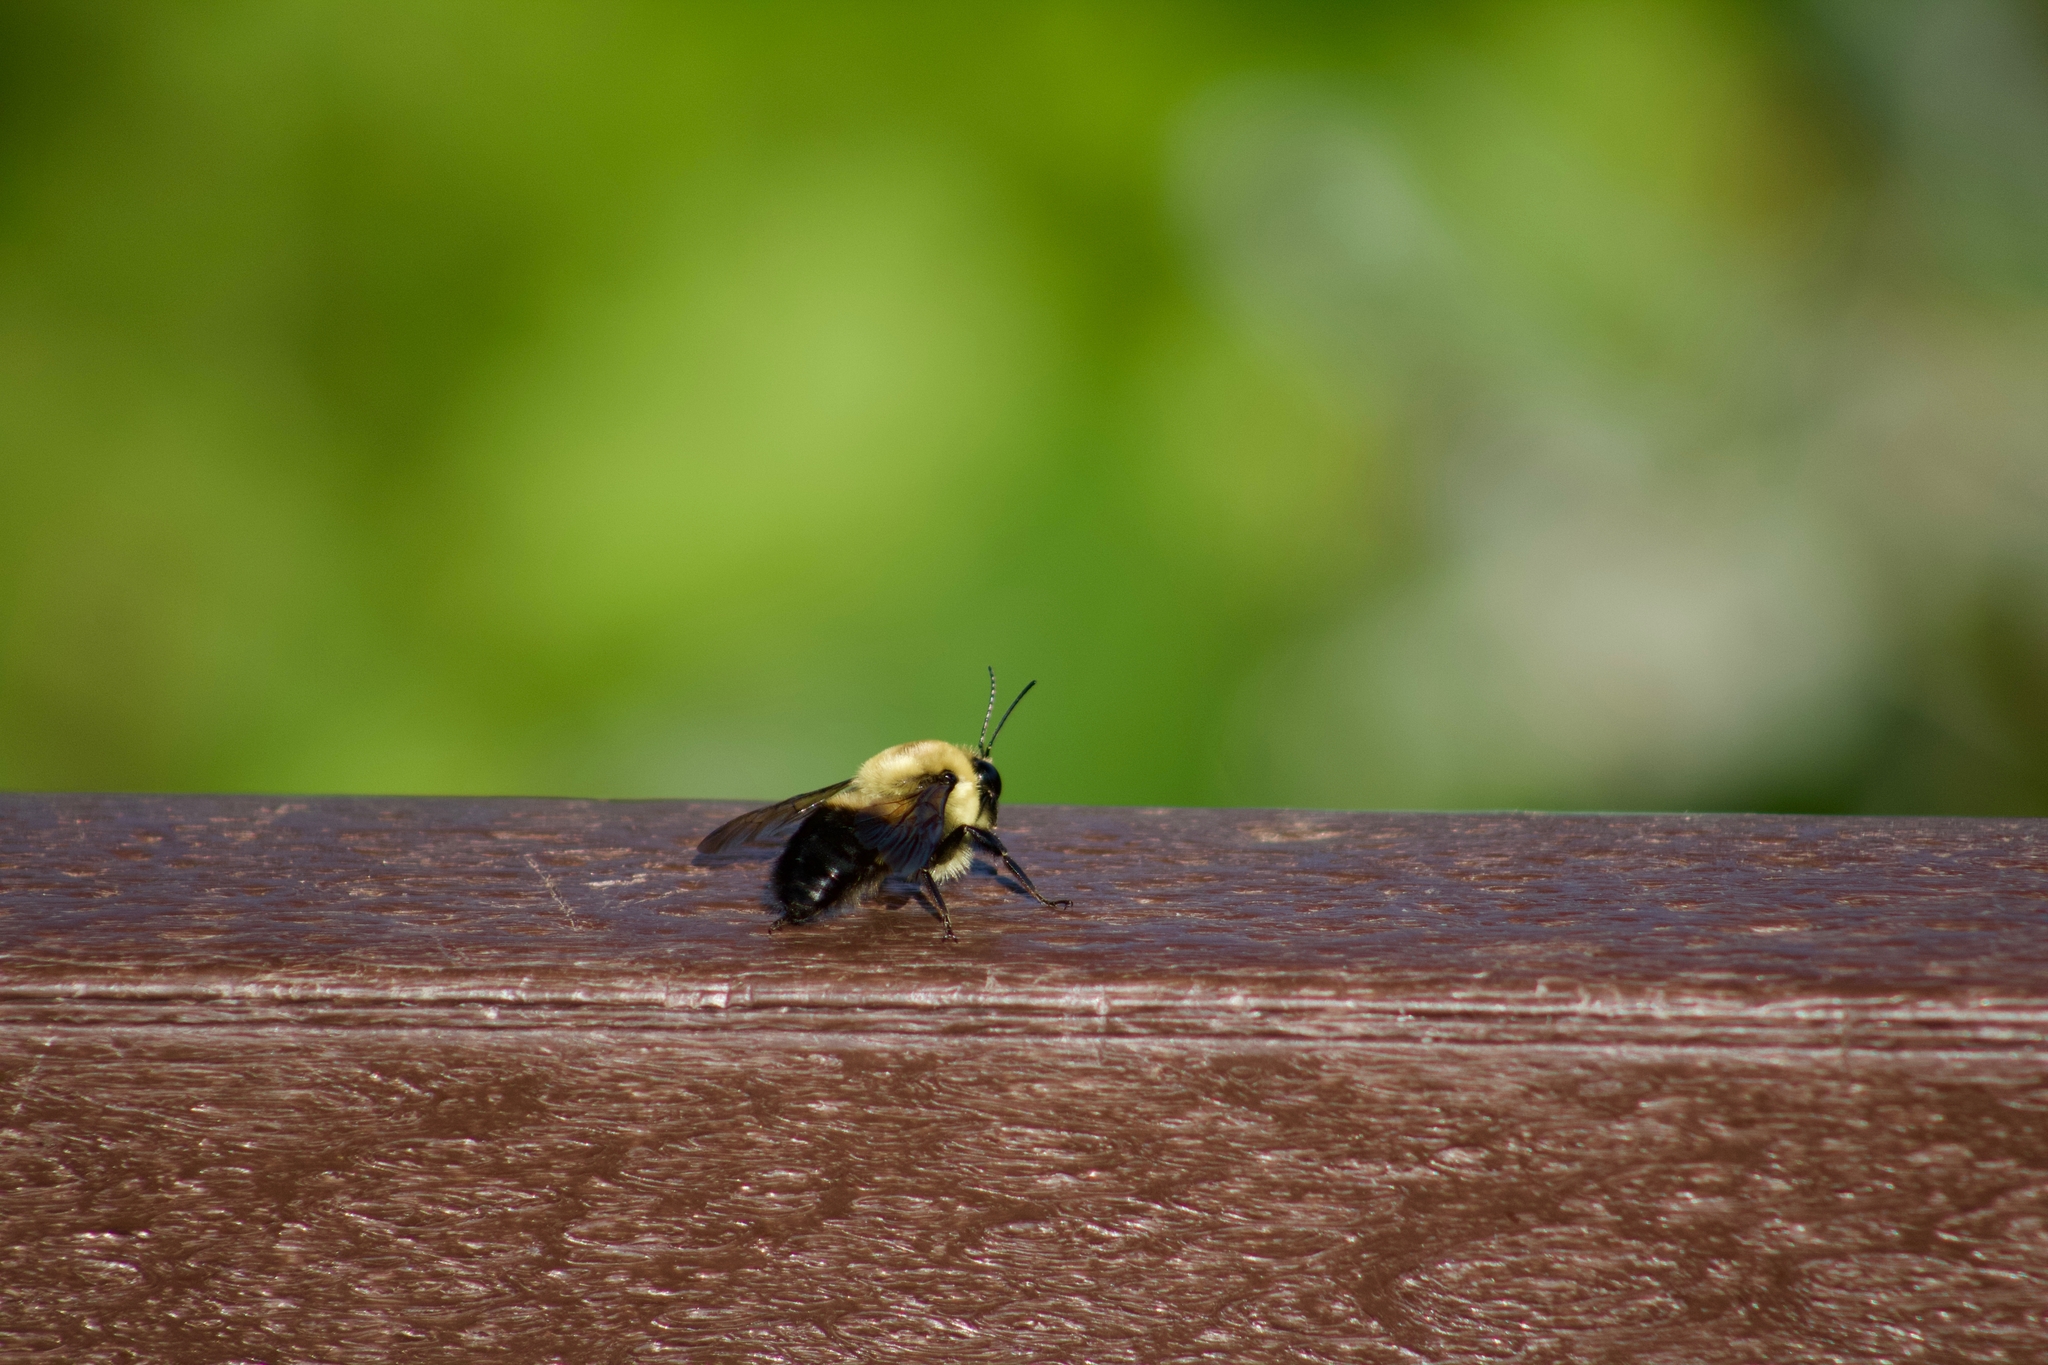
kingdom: Animalia
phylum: Arthropoda
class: Insecta
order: Hymenoptera
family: Apidae
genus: Bombus
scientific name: Bombus griseocollis
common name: Brown-belted bumble bee
